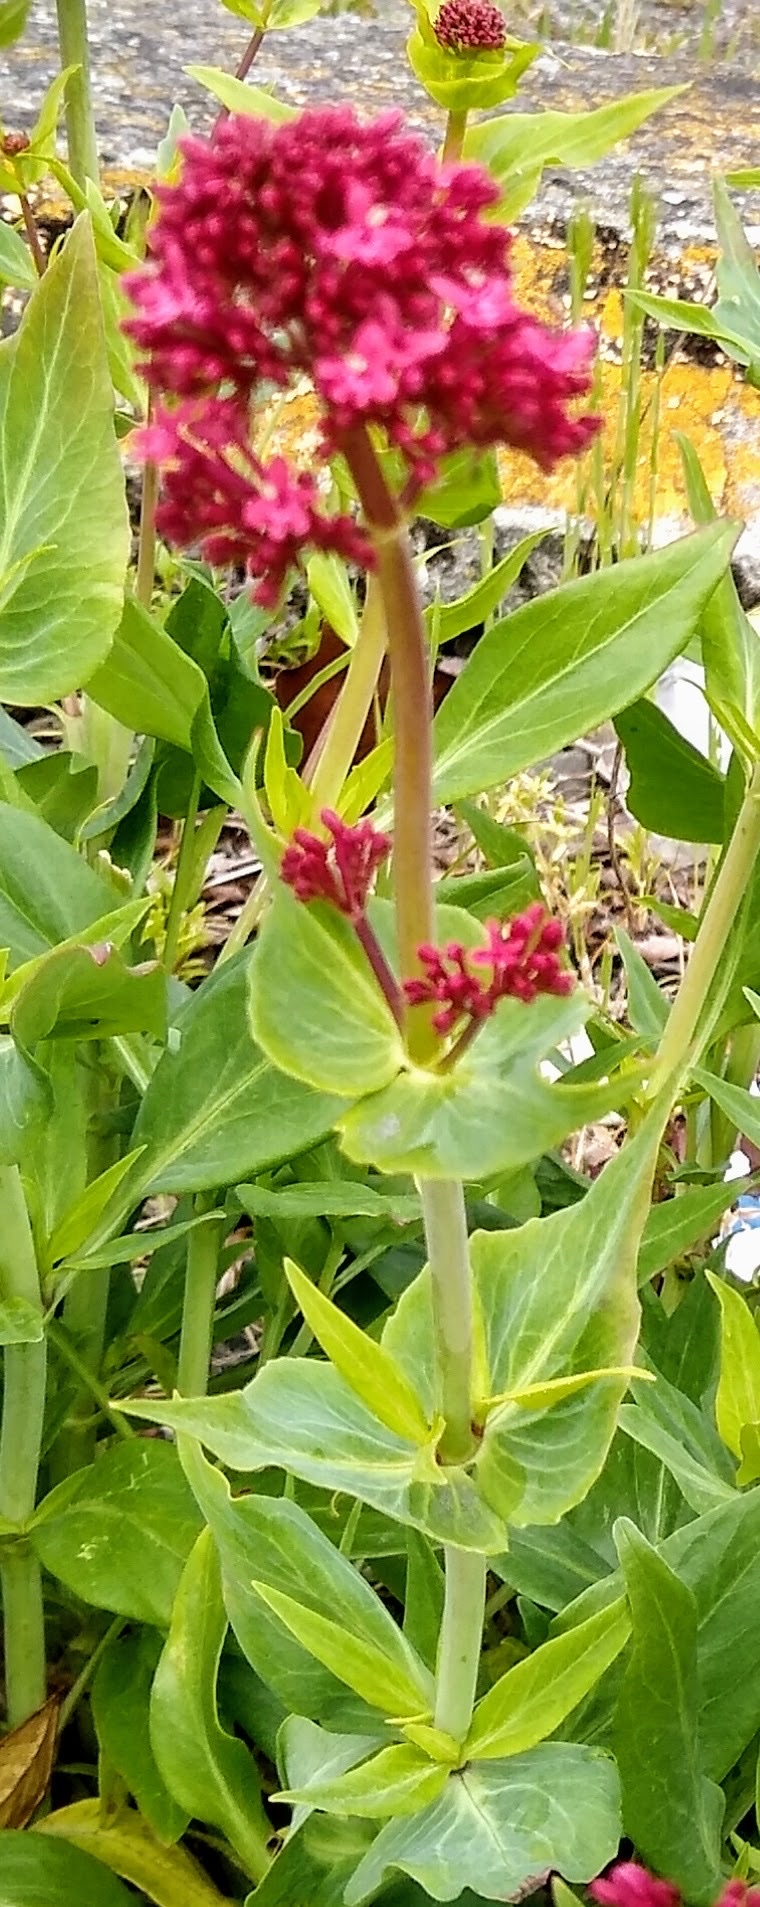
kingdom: Plantae
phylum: Tracheophyta
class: Magnoliopsida
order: Dipsacales
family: Caprifoliaceae
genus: Centranthus
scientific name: Centranthus ruber
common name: Red valerian
